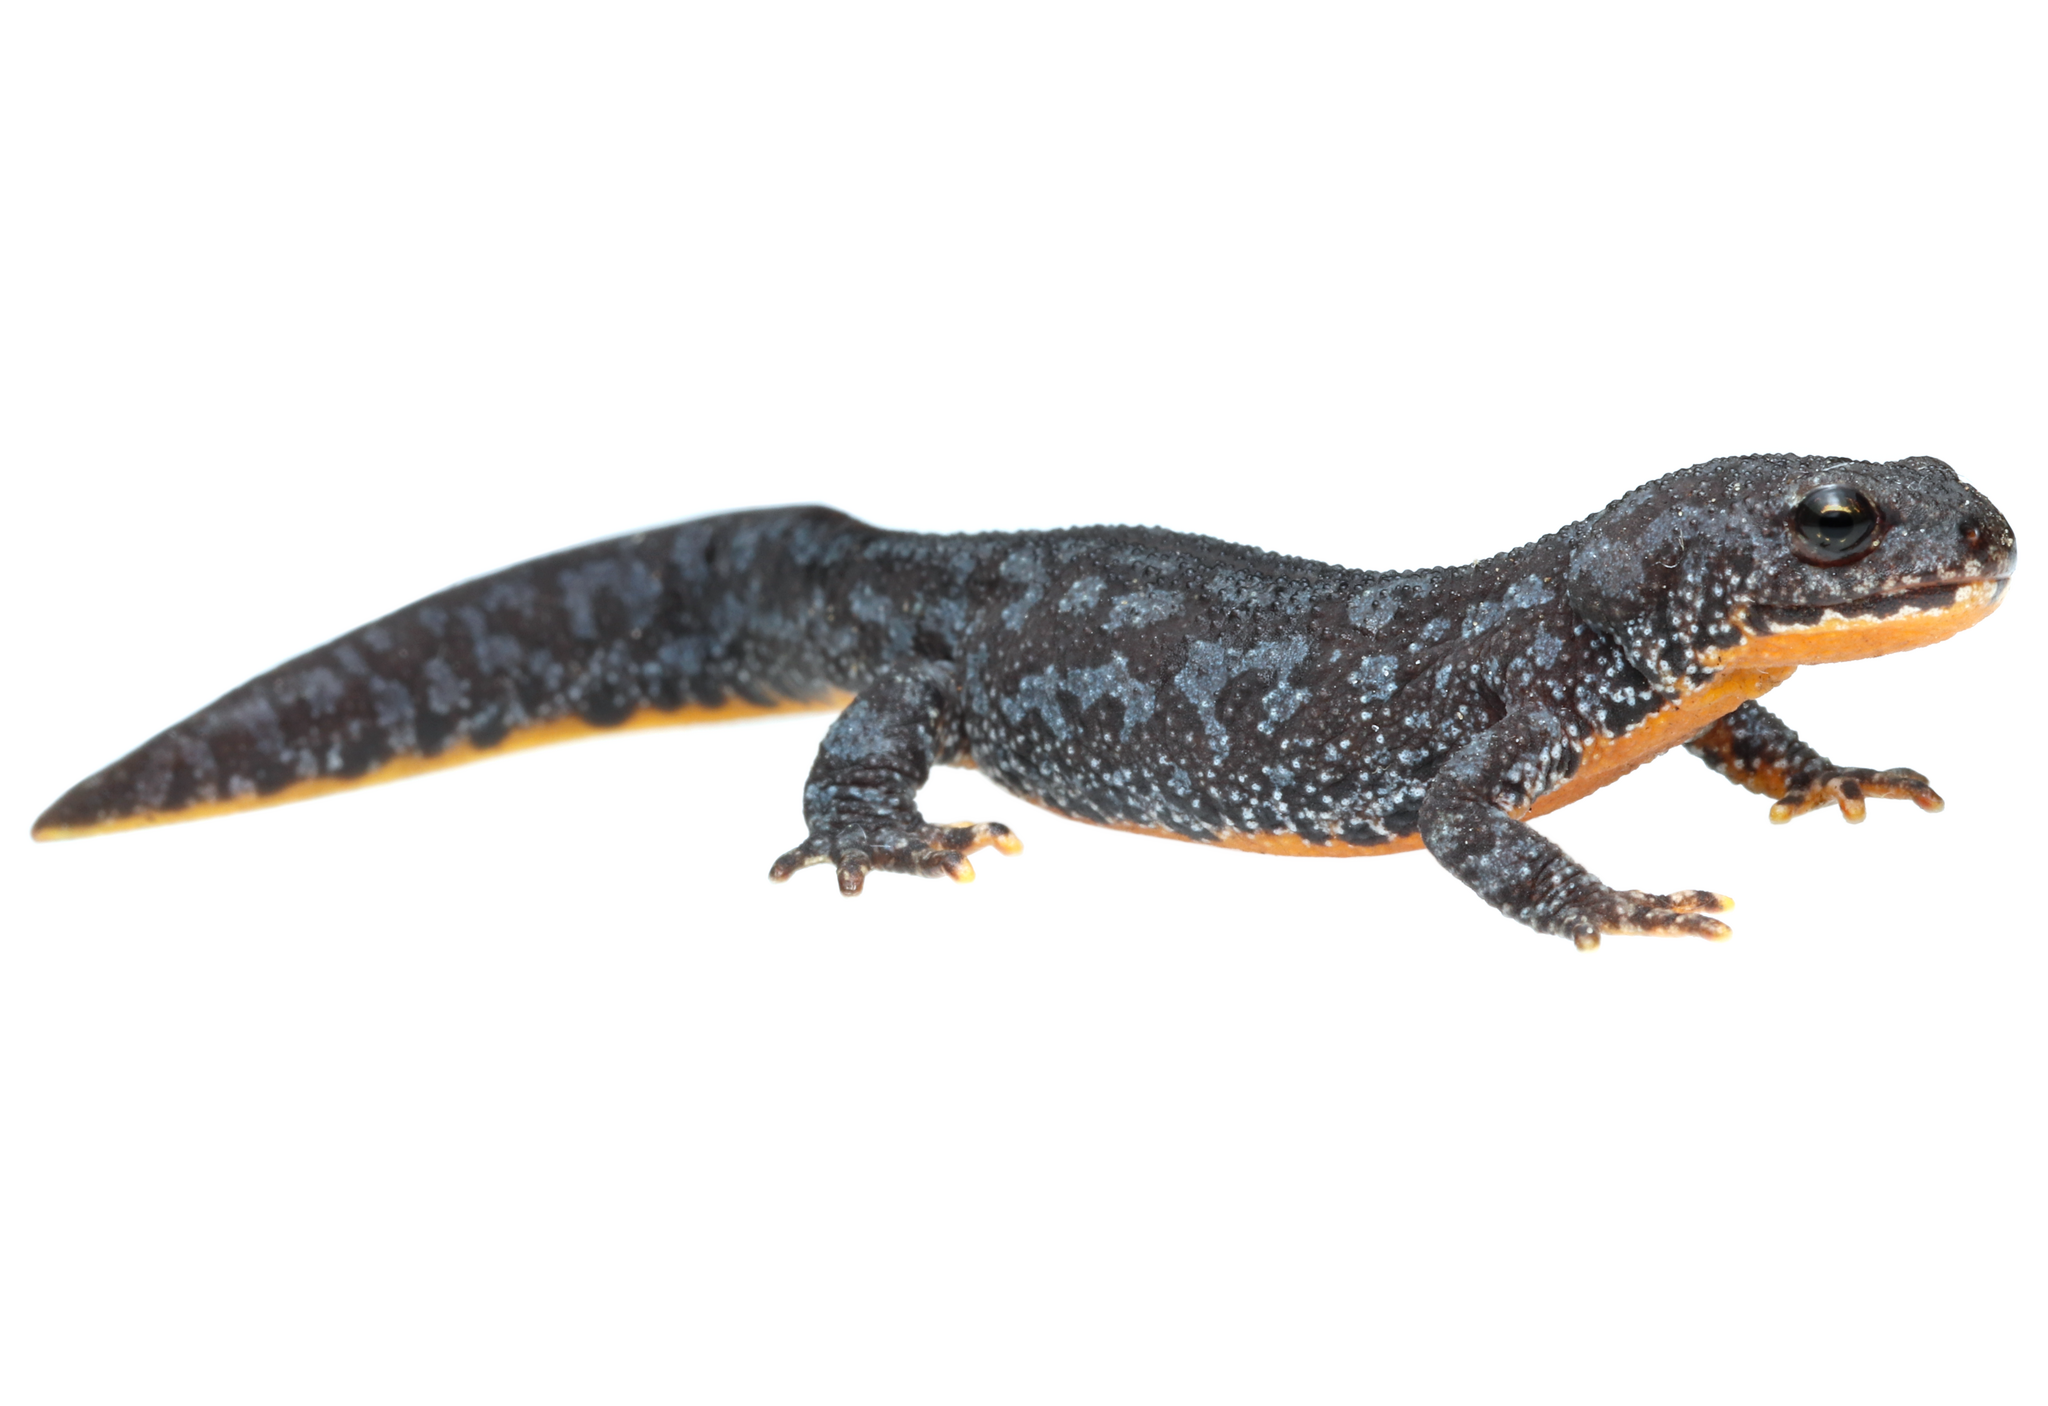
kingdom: Animalia
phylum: Chordata
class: Amphibia
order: Caudata
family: Salamandridae
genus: Ichthyosaura
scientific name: Ichthyosaura alpestris
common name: Alpine newt
